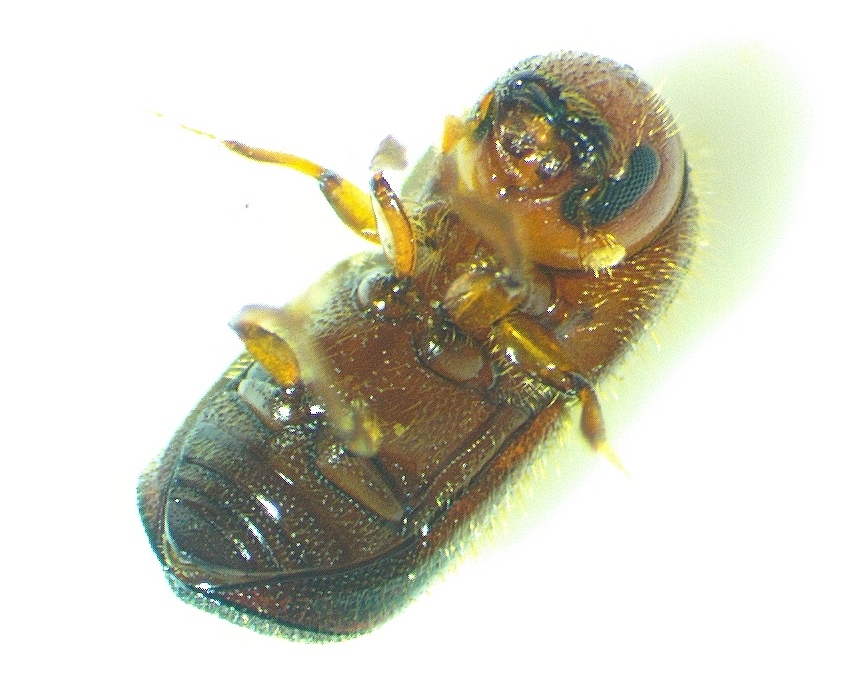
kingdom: Animalia
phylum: Arthropoda
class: Insecta
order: Coleoptera
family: Curculionidae
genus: Xylosandrus
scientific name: Xylosandrus crassiusculus
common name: Granulate ambrosia beetle
